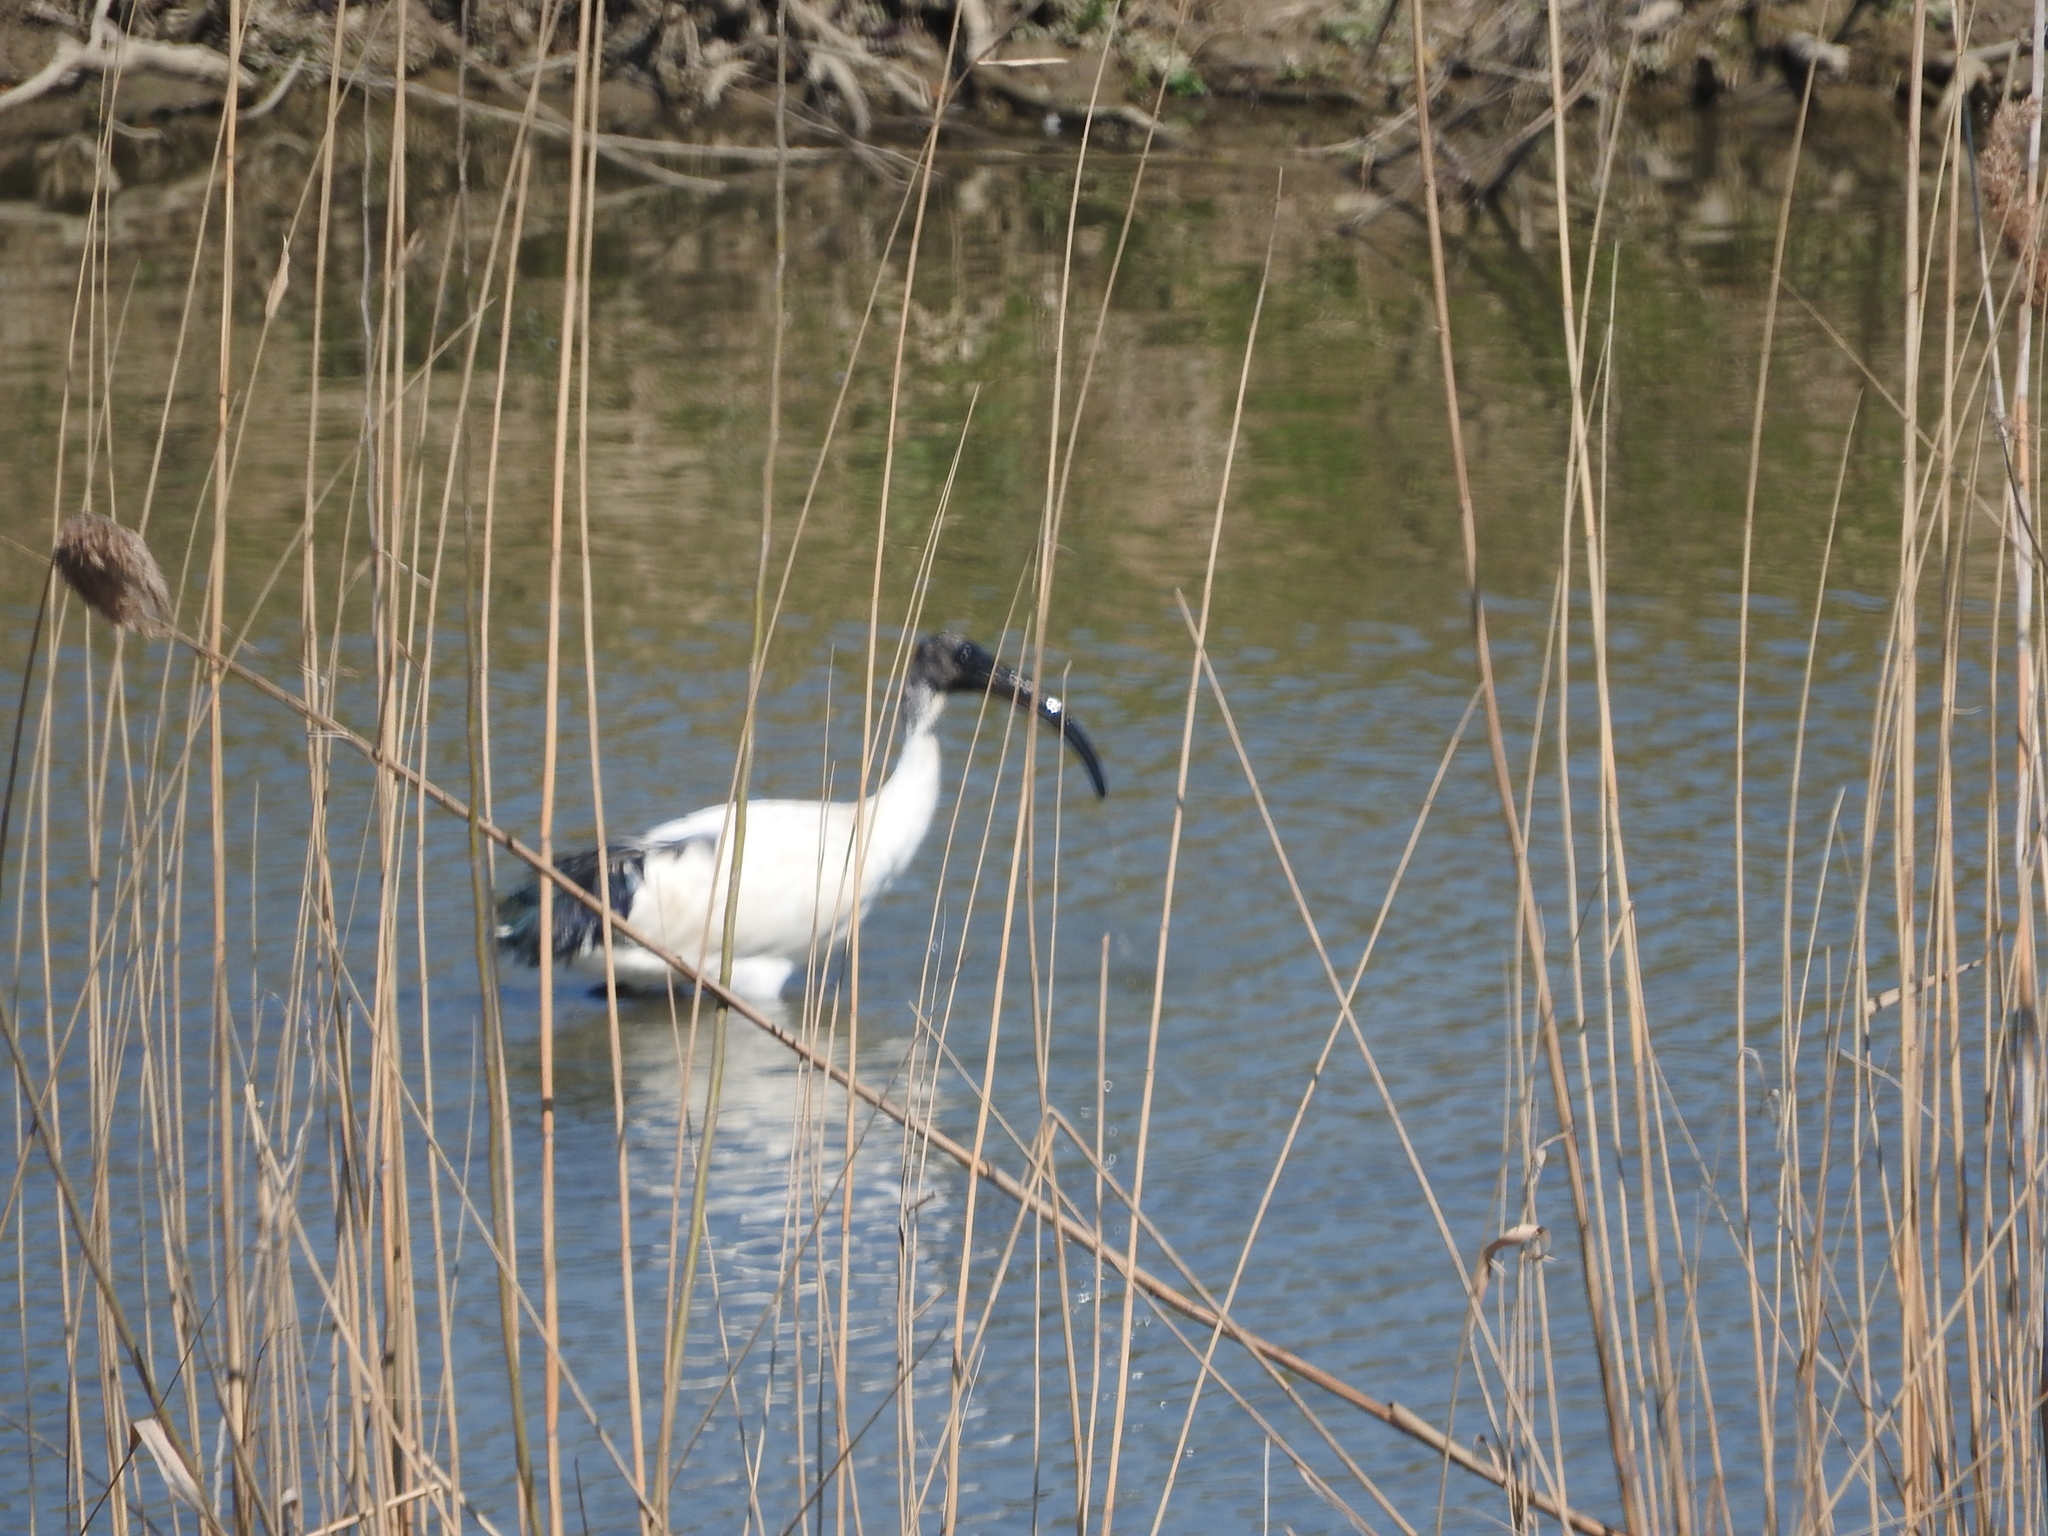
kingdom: Animalia
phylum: Chordata
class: Aves
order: Pelecaniformes
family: Threskiornithidae
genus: Threskiornis
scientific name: Threskiornis aethiopicus
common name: Sacred ibis
